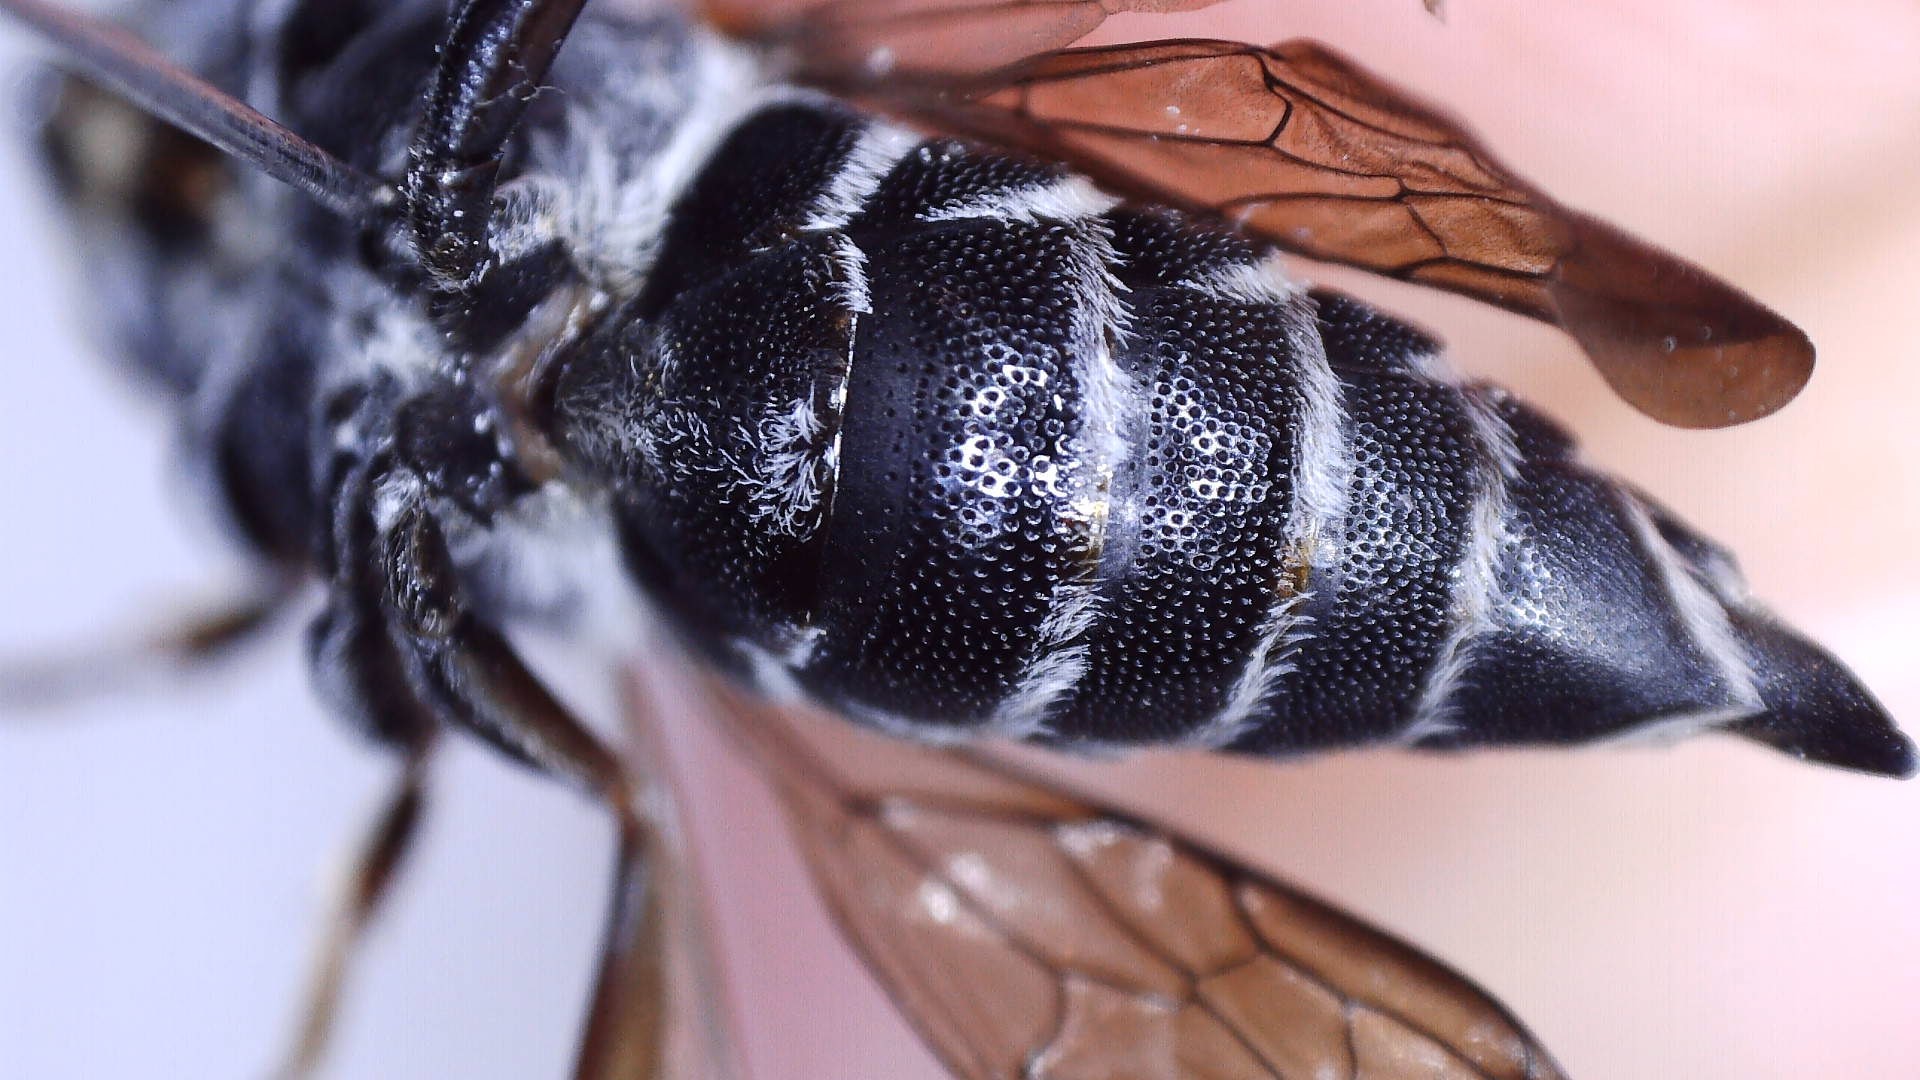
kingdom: Animalia
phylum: Arthropoda
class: Insecta
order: Hymenoptera
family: Megachilidae
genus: Coelioxys
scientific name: Coelioxys sayi
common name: Say's cuckoo leaf-cutter bee
